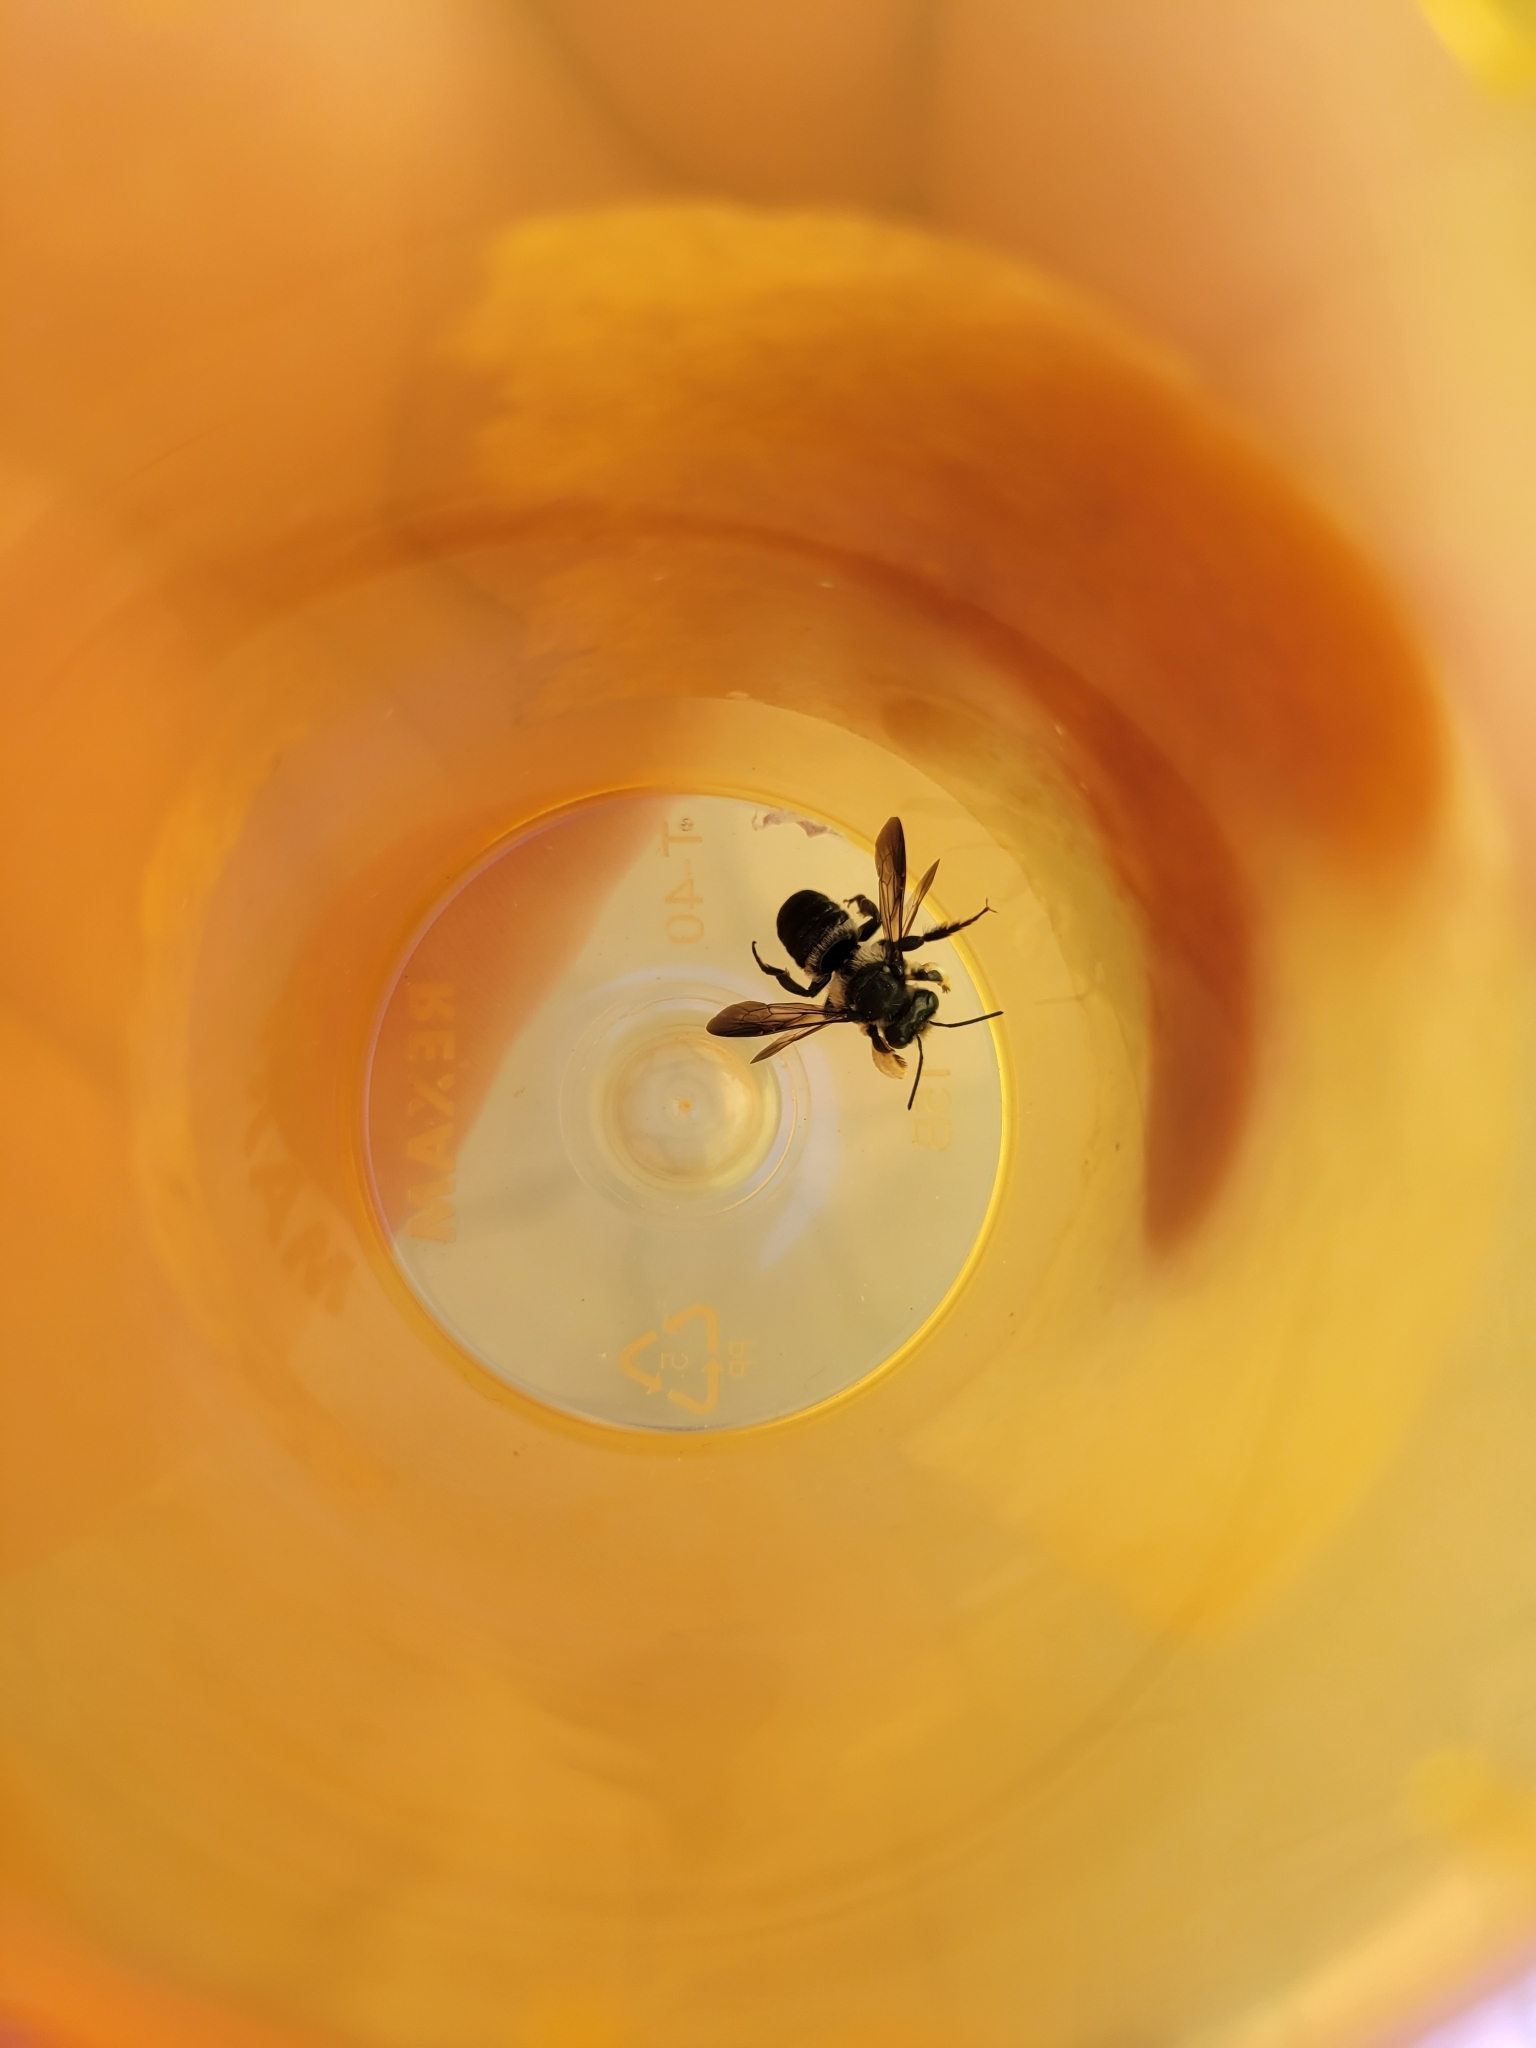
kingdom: Animalia
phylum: Arthropoda
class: Insecta
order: Hymenoptera
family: Megachilidae
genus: Megachile
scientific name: Megachile xylocopoides
